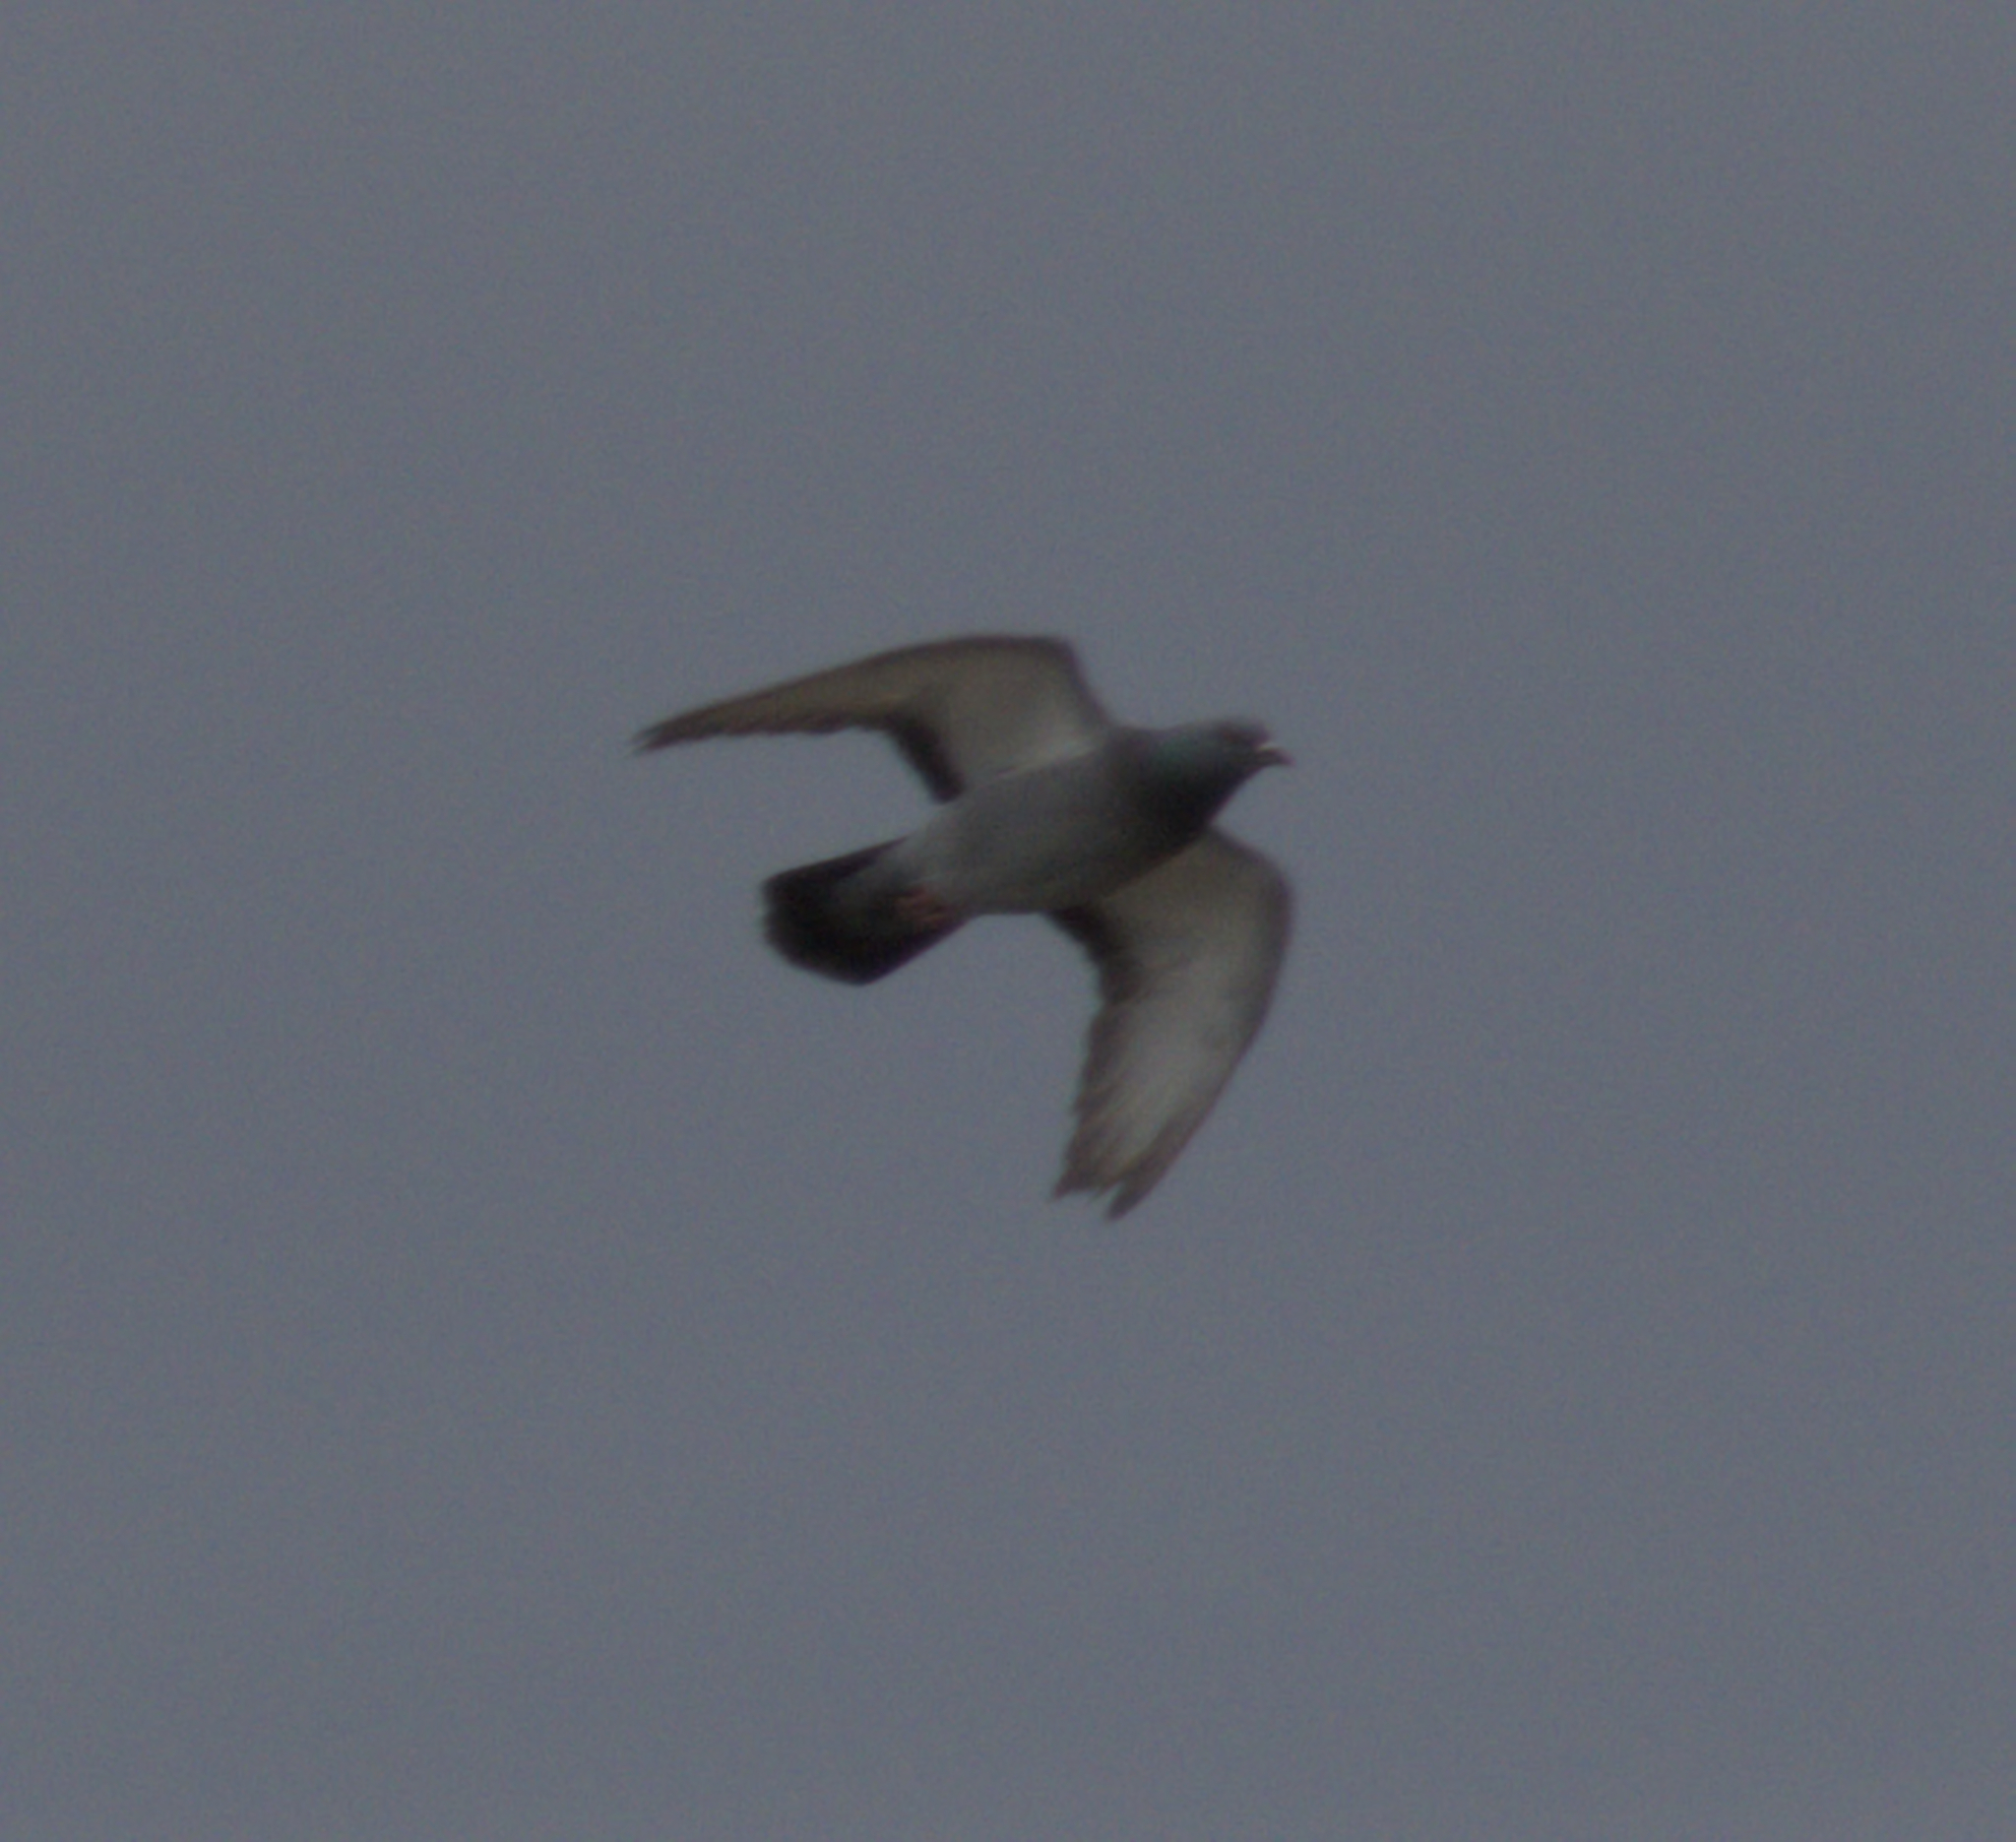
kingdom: Animalia
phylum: Chordata
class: Aves
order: Columbiformes
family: Columbidae
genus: Columba
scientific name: Columba livia
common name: Rock pigeon
